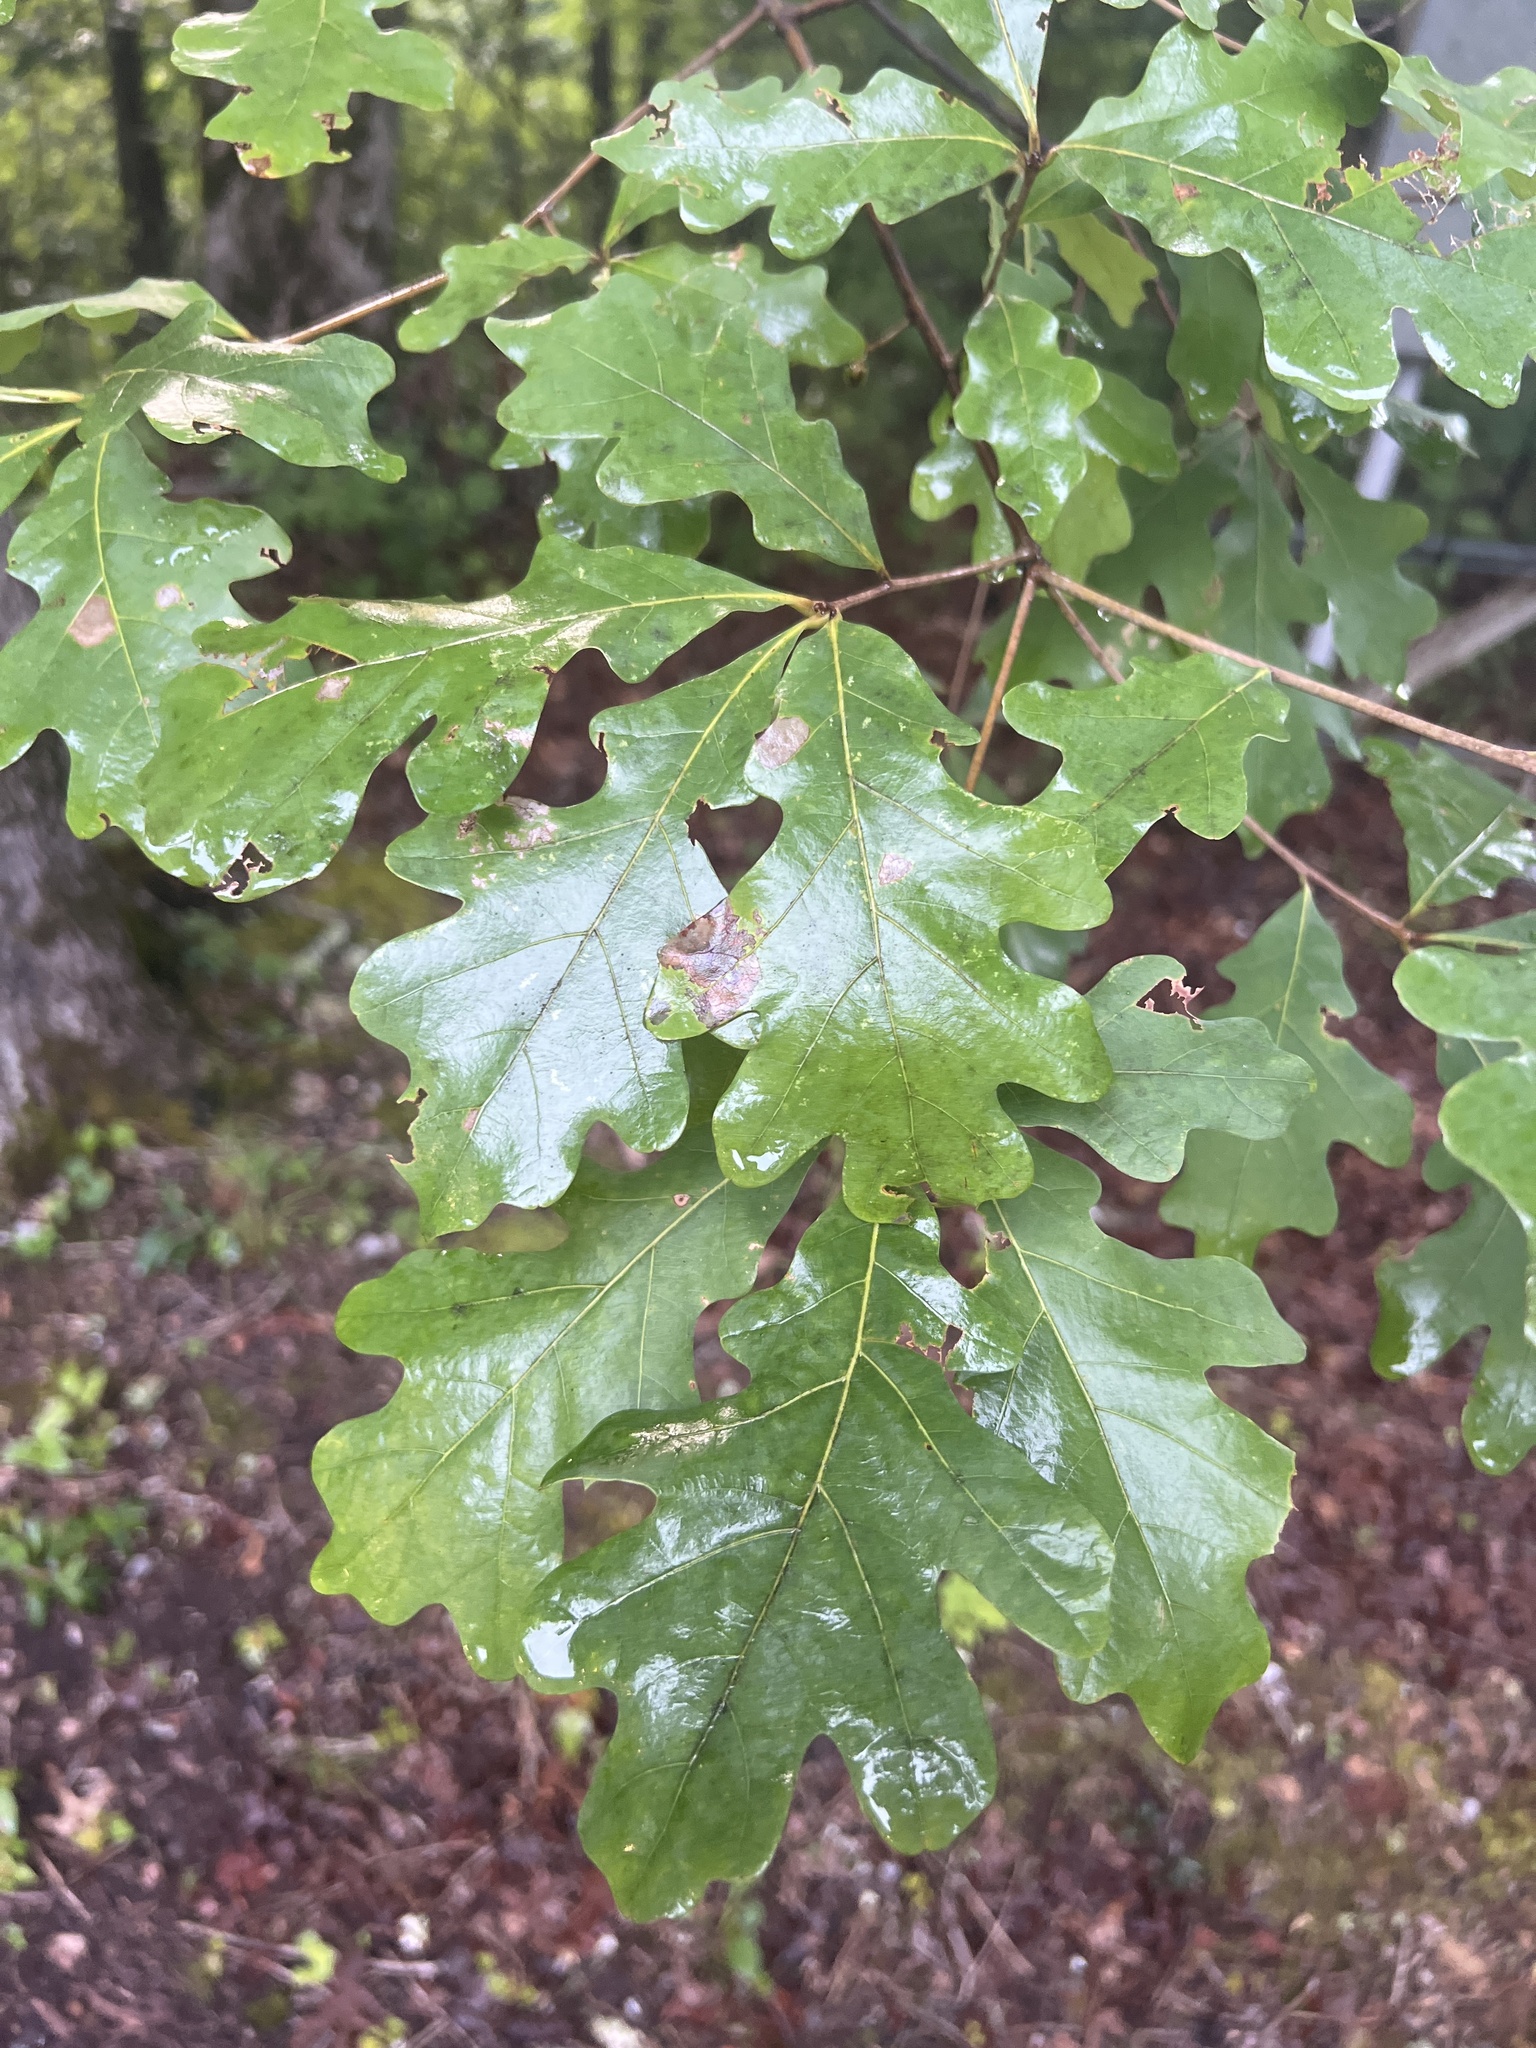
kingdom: Plantae
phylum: Tracheophyta
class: Magnoliopsida
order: Fagales
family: Fagaceae
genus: Quercus
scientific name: Quercus alba
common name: White oak
